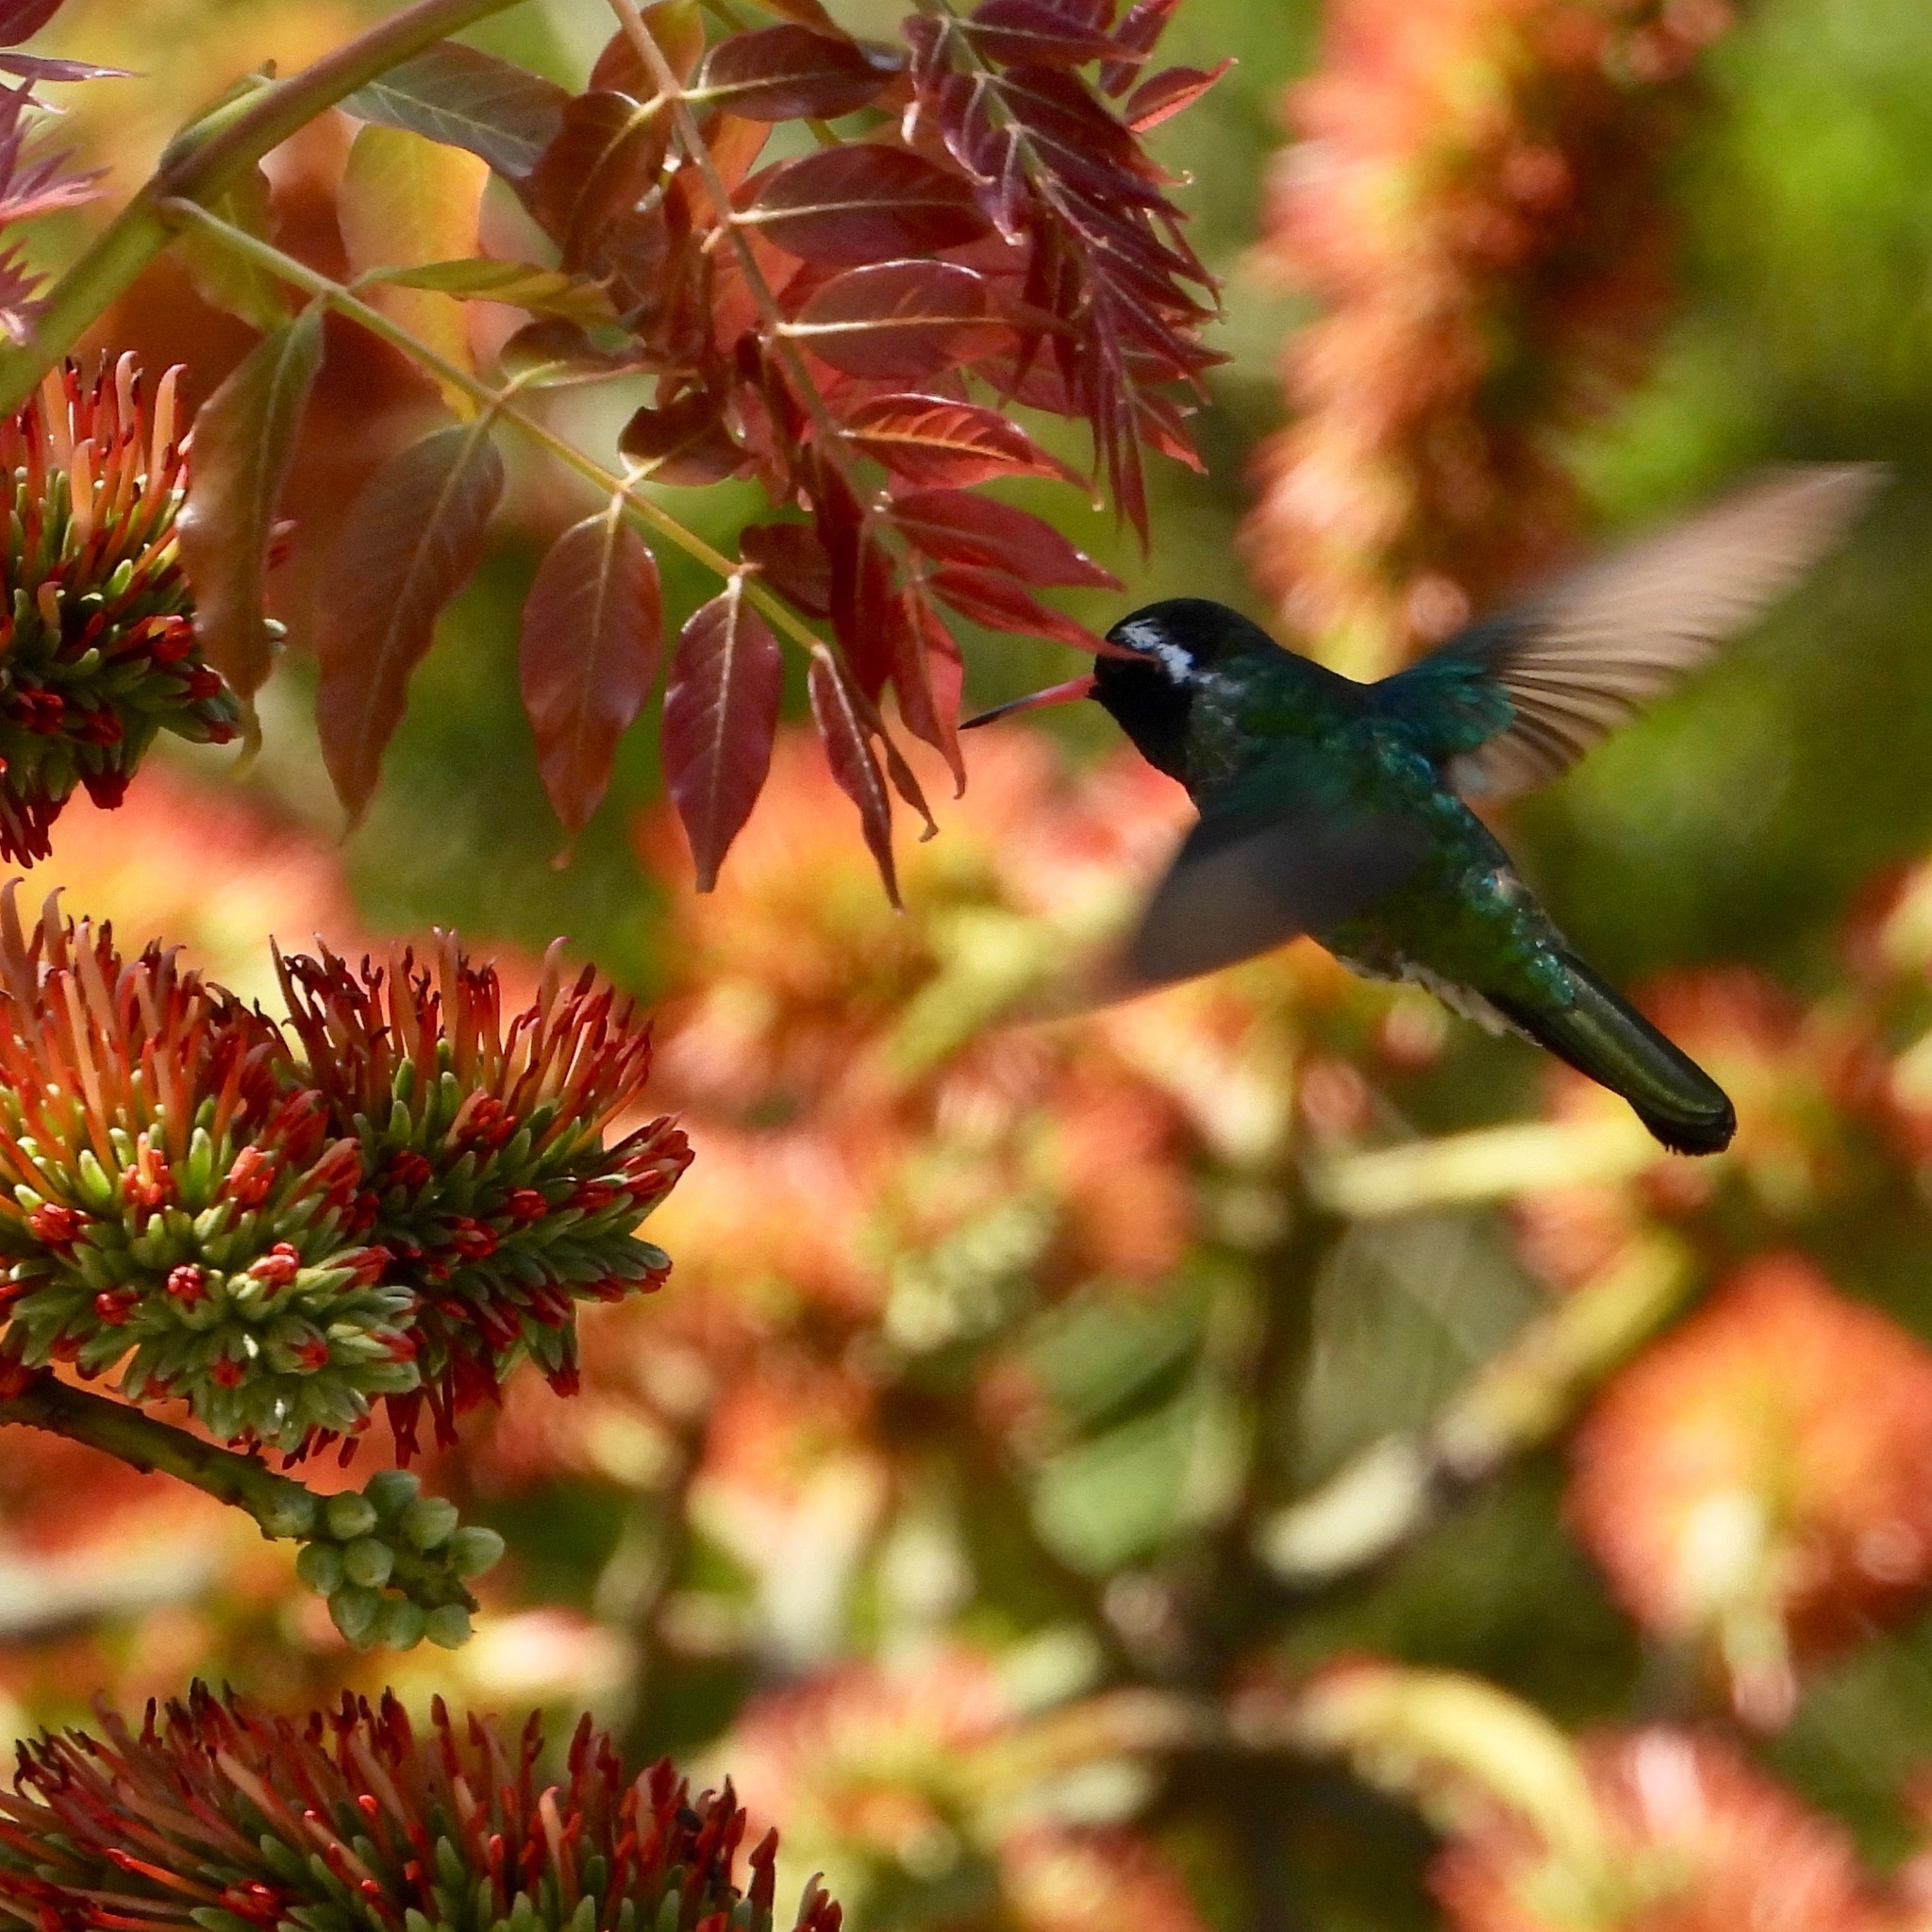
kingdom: Animalia
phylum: Chordata
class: Aves
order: Apodiformes
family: Trochilidae
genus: Basilinna
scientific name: Basilinna leucotis
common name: White-eared hummingbird
